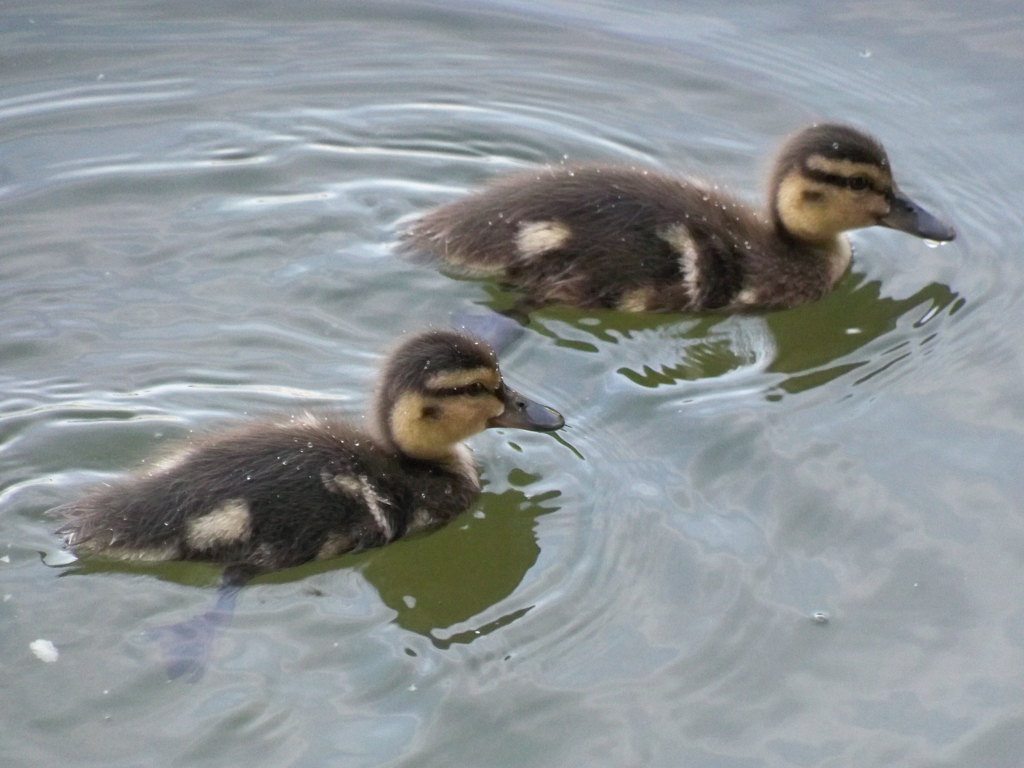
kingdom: Animalia
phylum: Chordata
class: Aves
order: Anseriformes
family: Anatidae
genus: Anas
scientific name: Anas platyrhynchos
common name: Mallard
